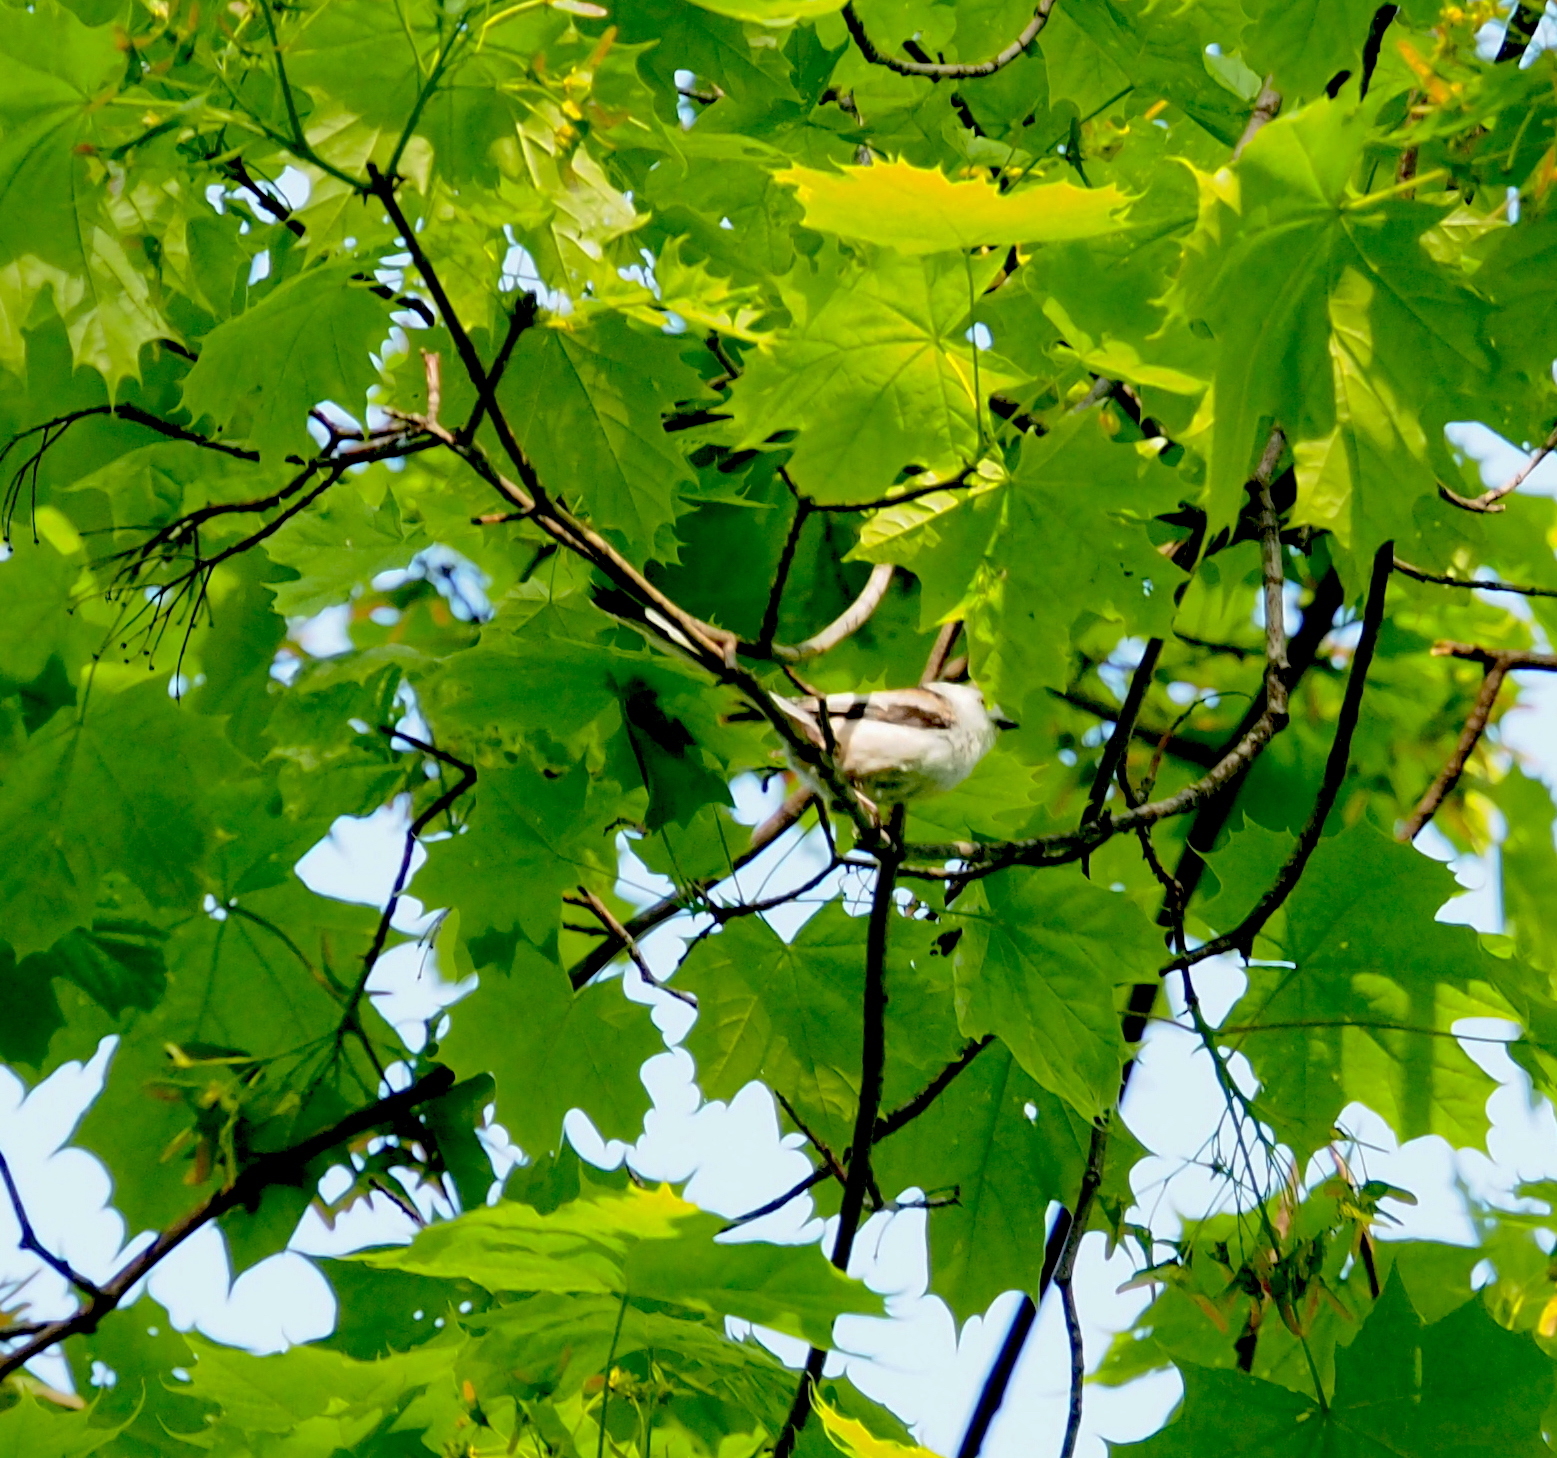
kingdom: Animalia
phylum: Chordata
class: Aves
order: Passeriformes
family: Aegithalidae
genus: Aegithalos
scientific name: Aegithalos caudatus
